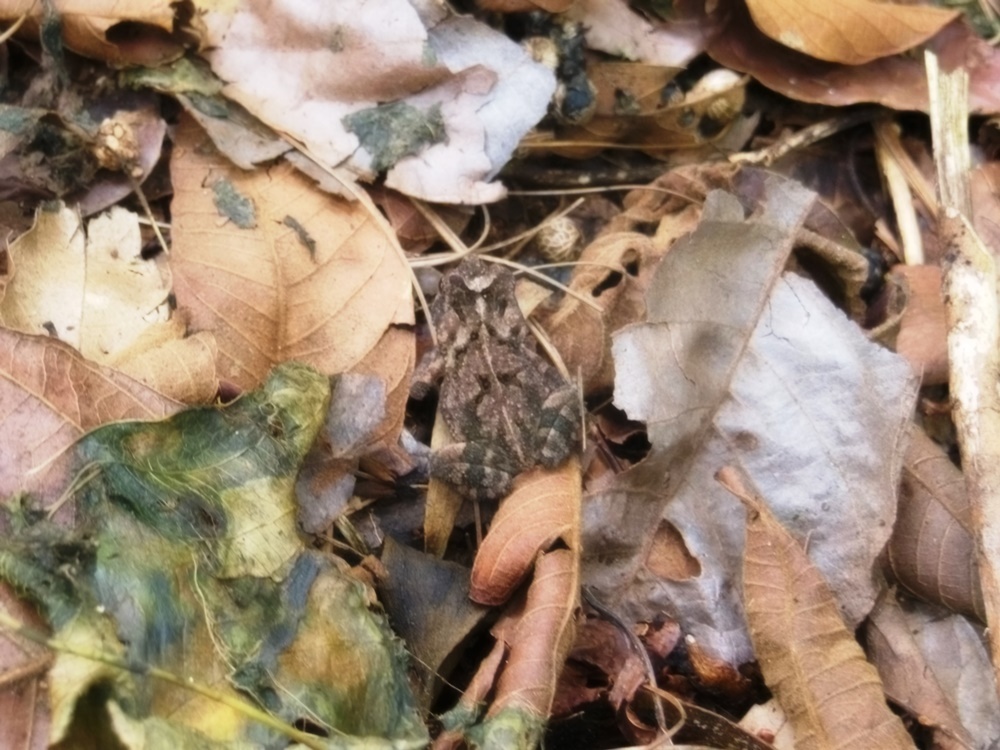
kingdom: Animalia
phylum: Chordata
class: Amphibia
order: Anura
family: Bufonidae
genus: Incilius
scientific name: Incilius canaliferus
